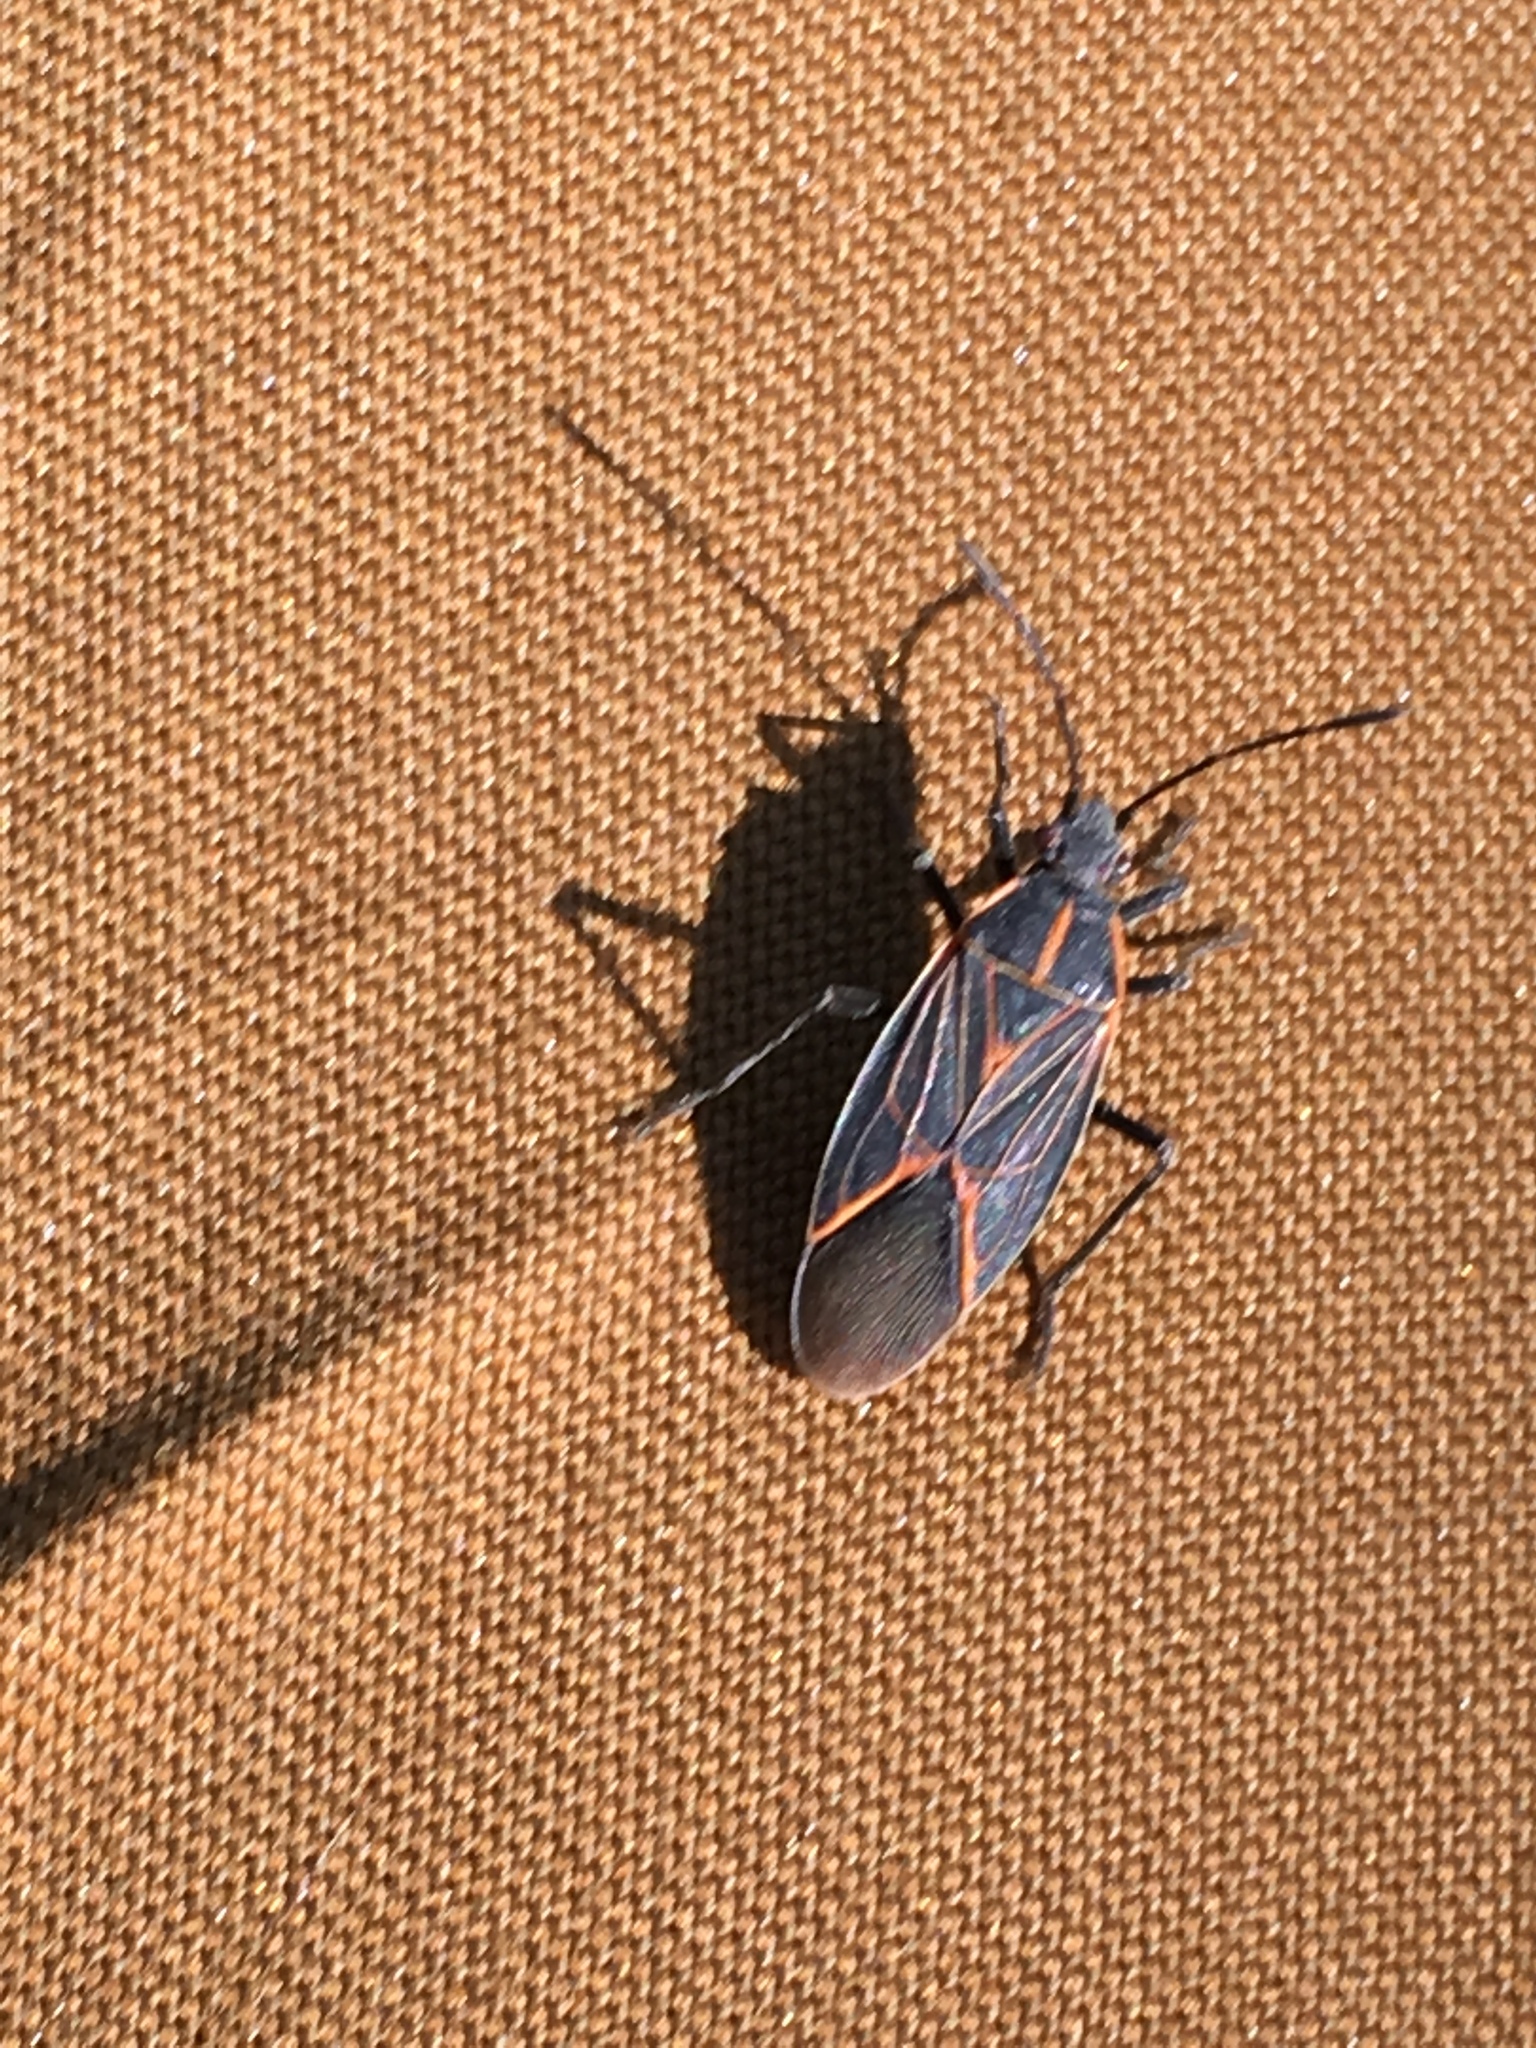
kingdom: Animalia
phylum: Arthropoda
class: Insecta
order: Hemiptera
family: Rhopalidae
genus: Boisea
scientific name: Boisea rubrolineata
